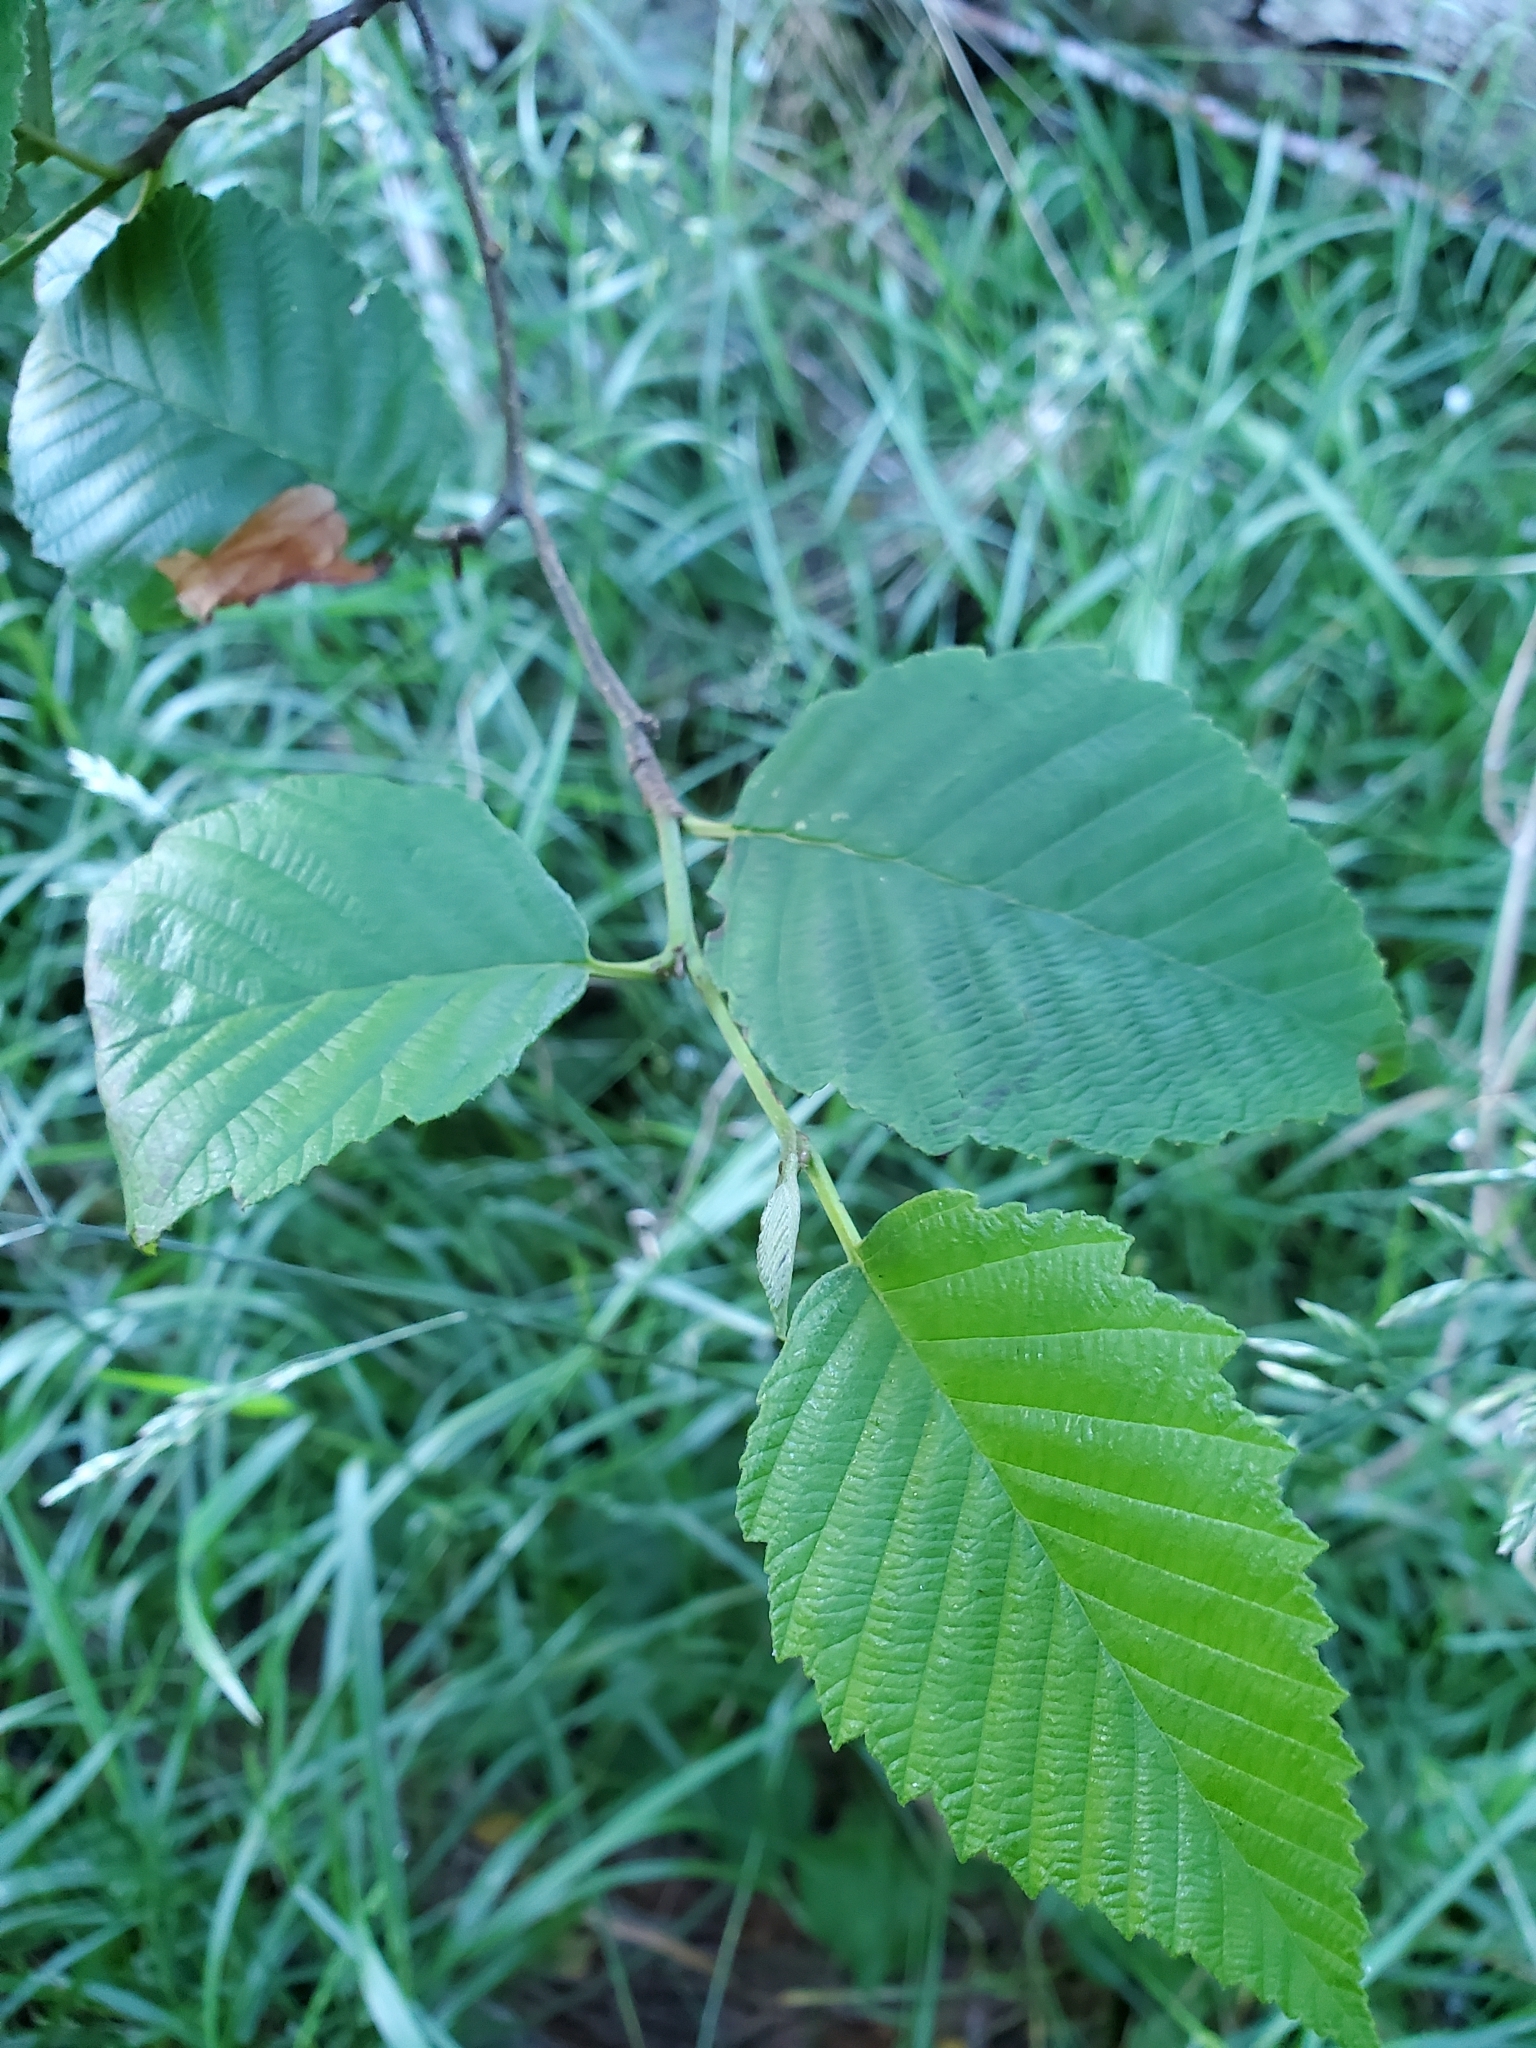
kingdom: Plantae
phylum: Tracheophyta
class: Magnoliopsida
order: Fagales
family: Betulaceae
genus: Alnus
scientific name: Alnus rubra
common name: Red alder
